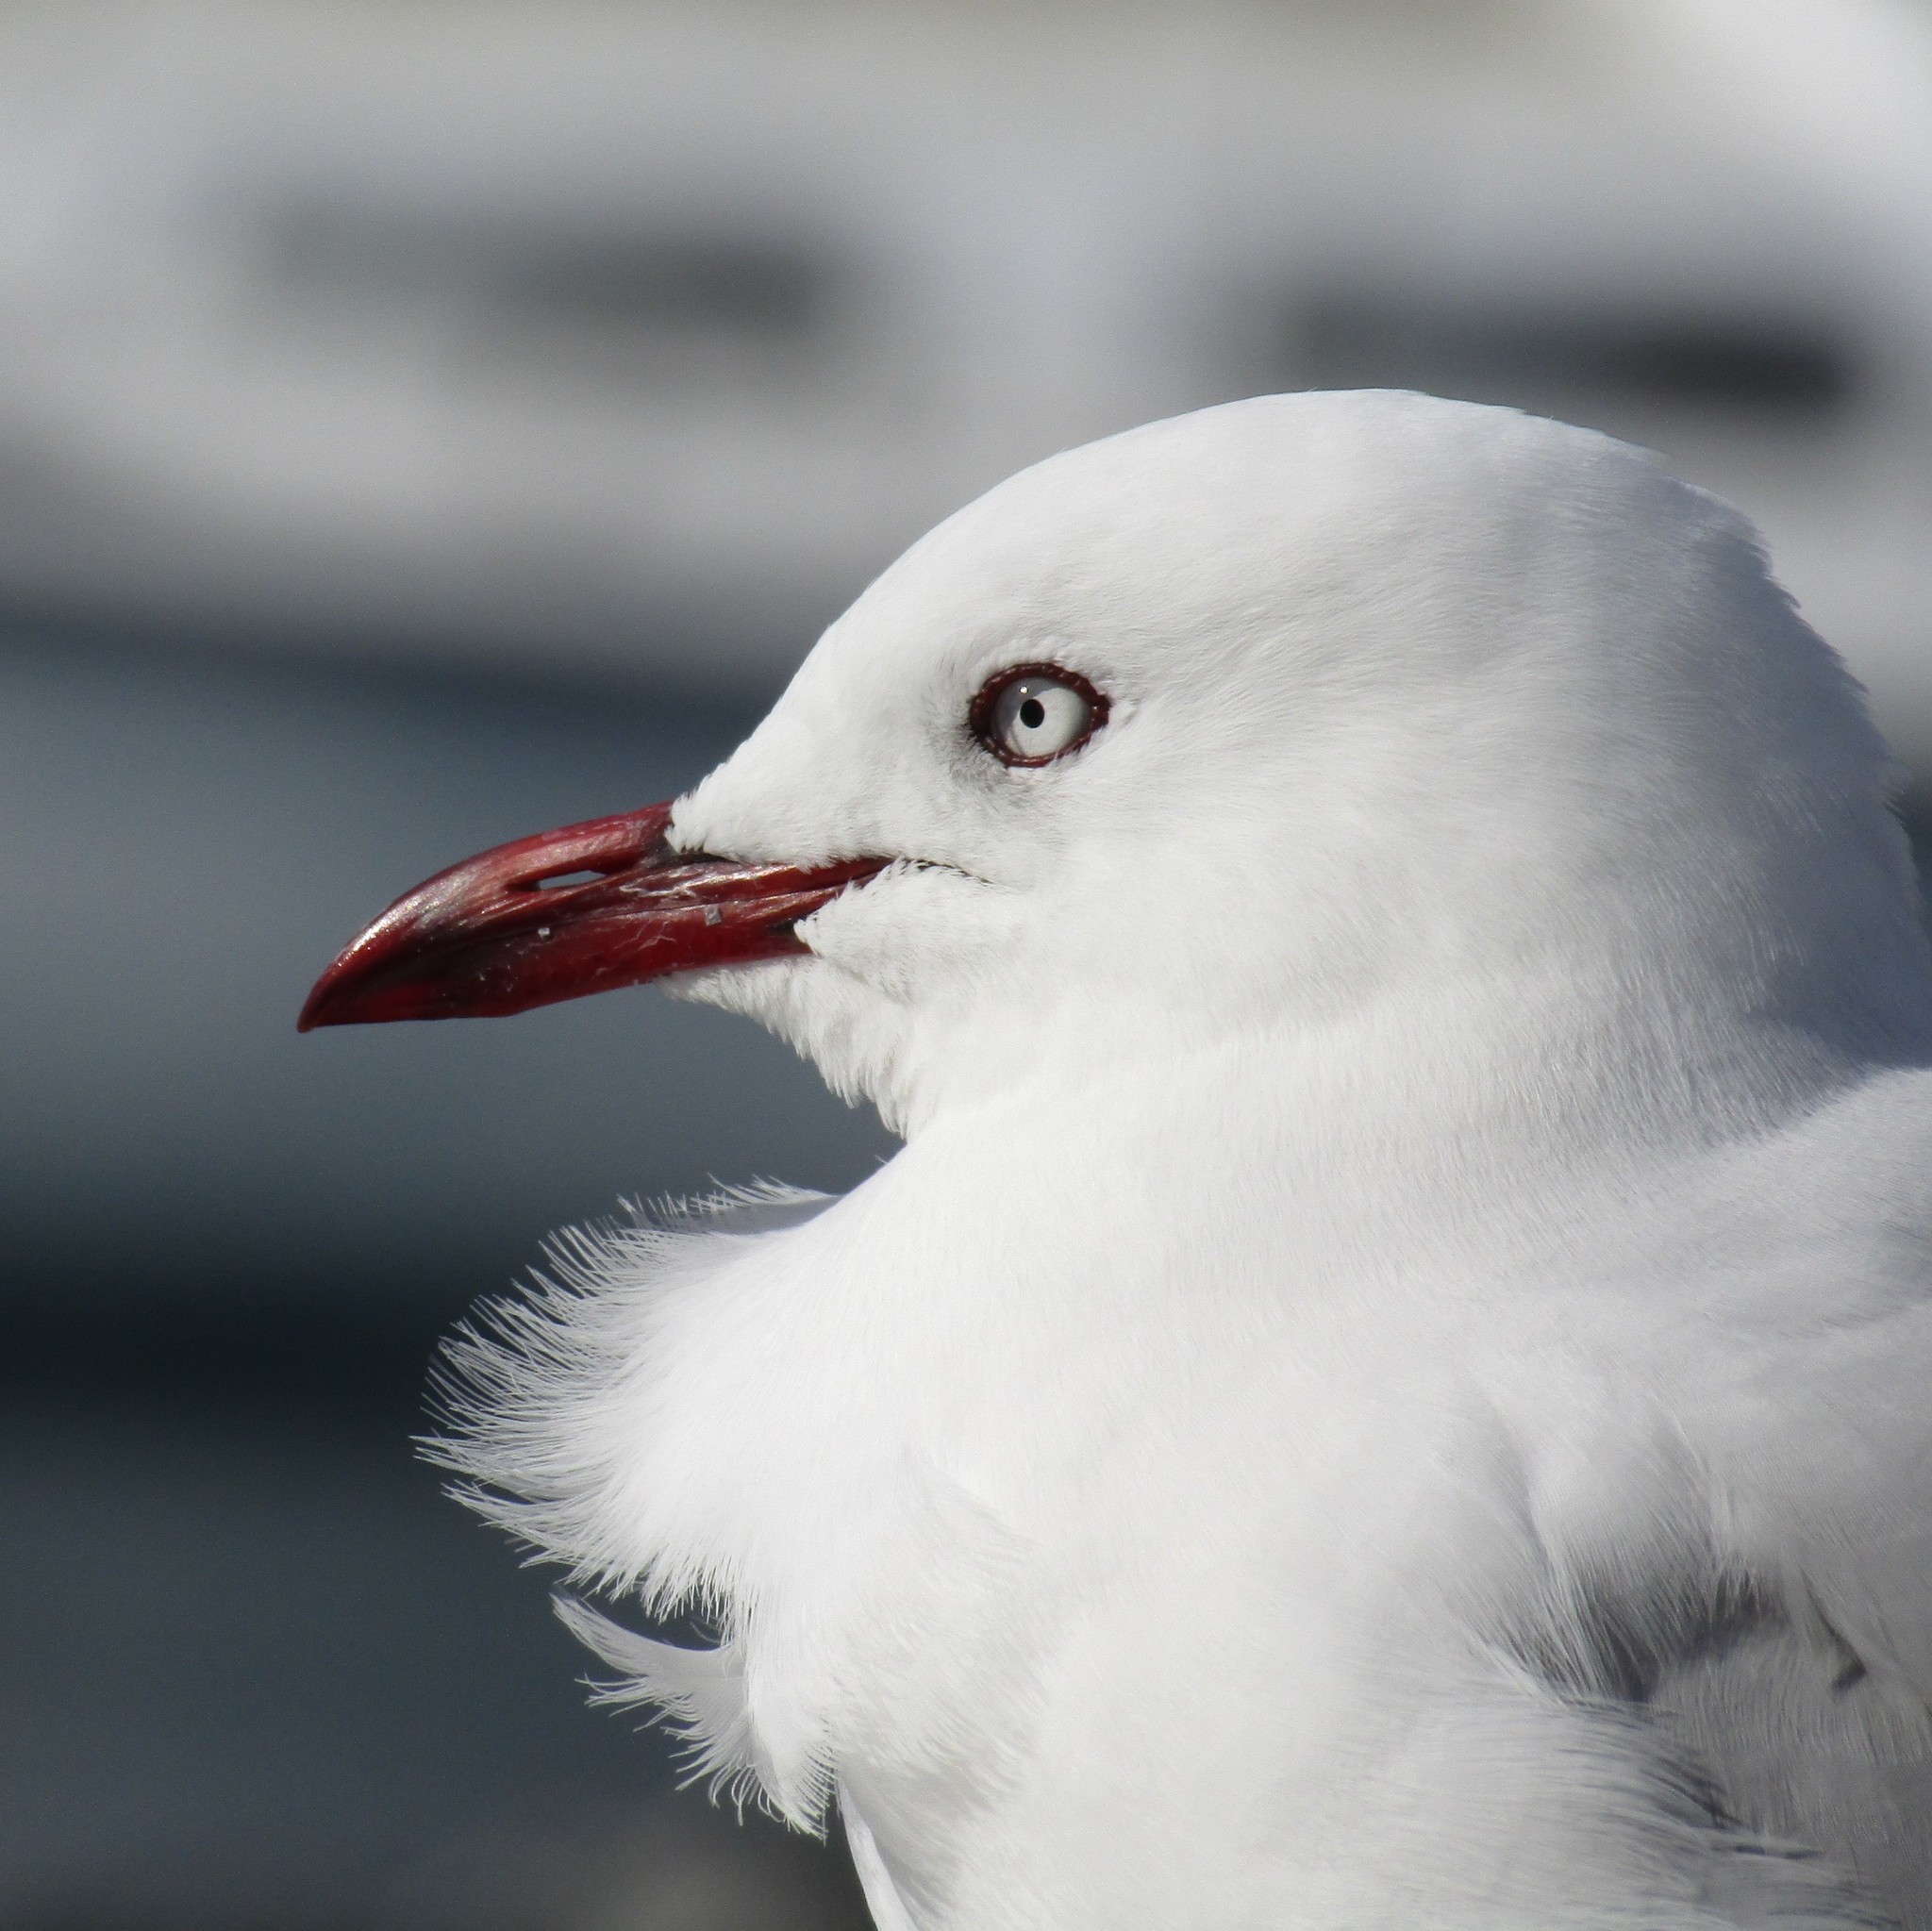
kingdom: Animalia
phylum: Chordata
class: Aves
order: Charadriiformes
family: Laridae
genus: Chroicocephalus
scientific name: Chroicocephalus novaehollandiae
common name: Silver gull
